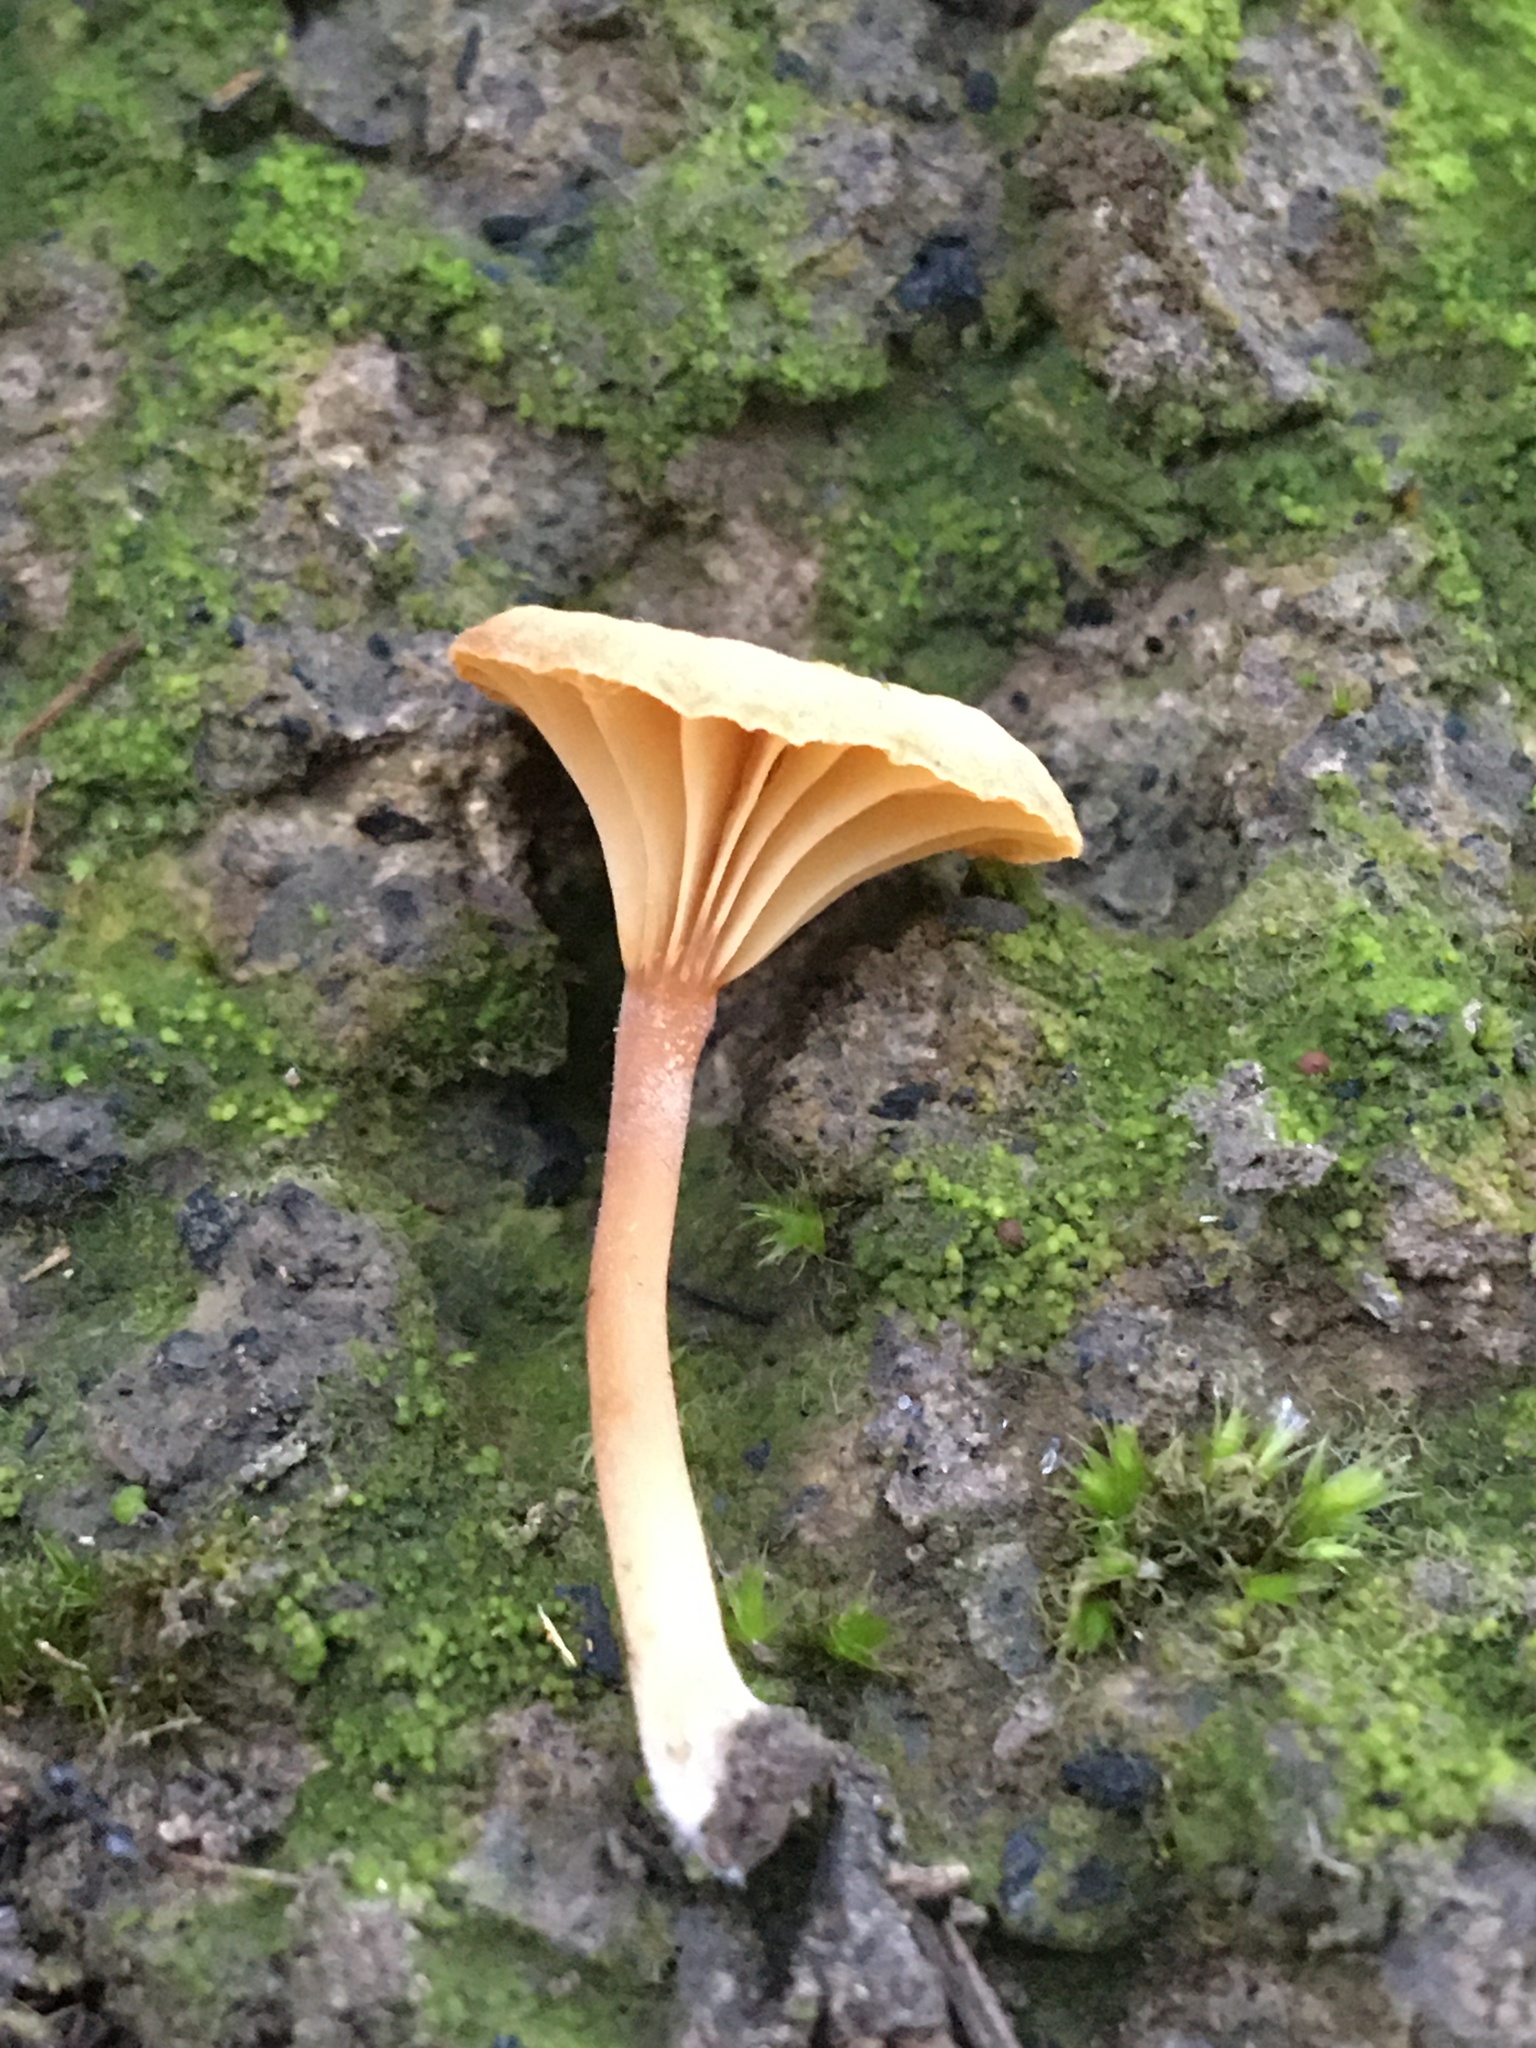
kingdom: Fungi
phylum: Basidiomycota
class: Agaricomycetes
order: Agaricales
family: Hygrophoraceae
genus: Lichenomphalia
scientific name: Lichenomphalia chromacea
